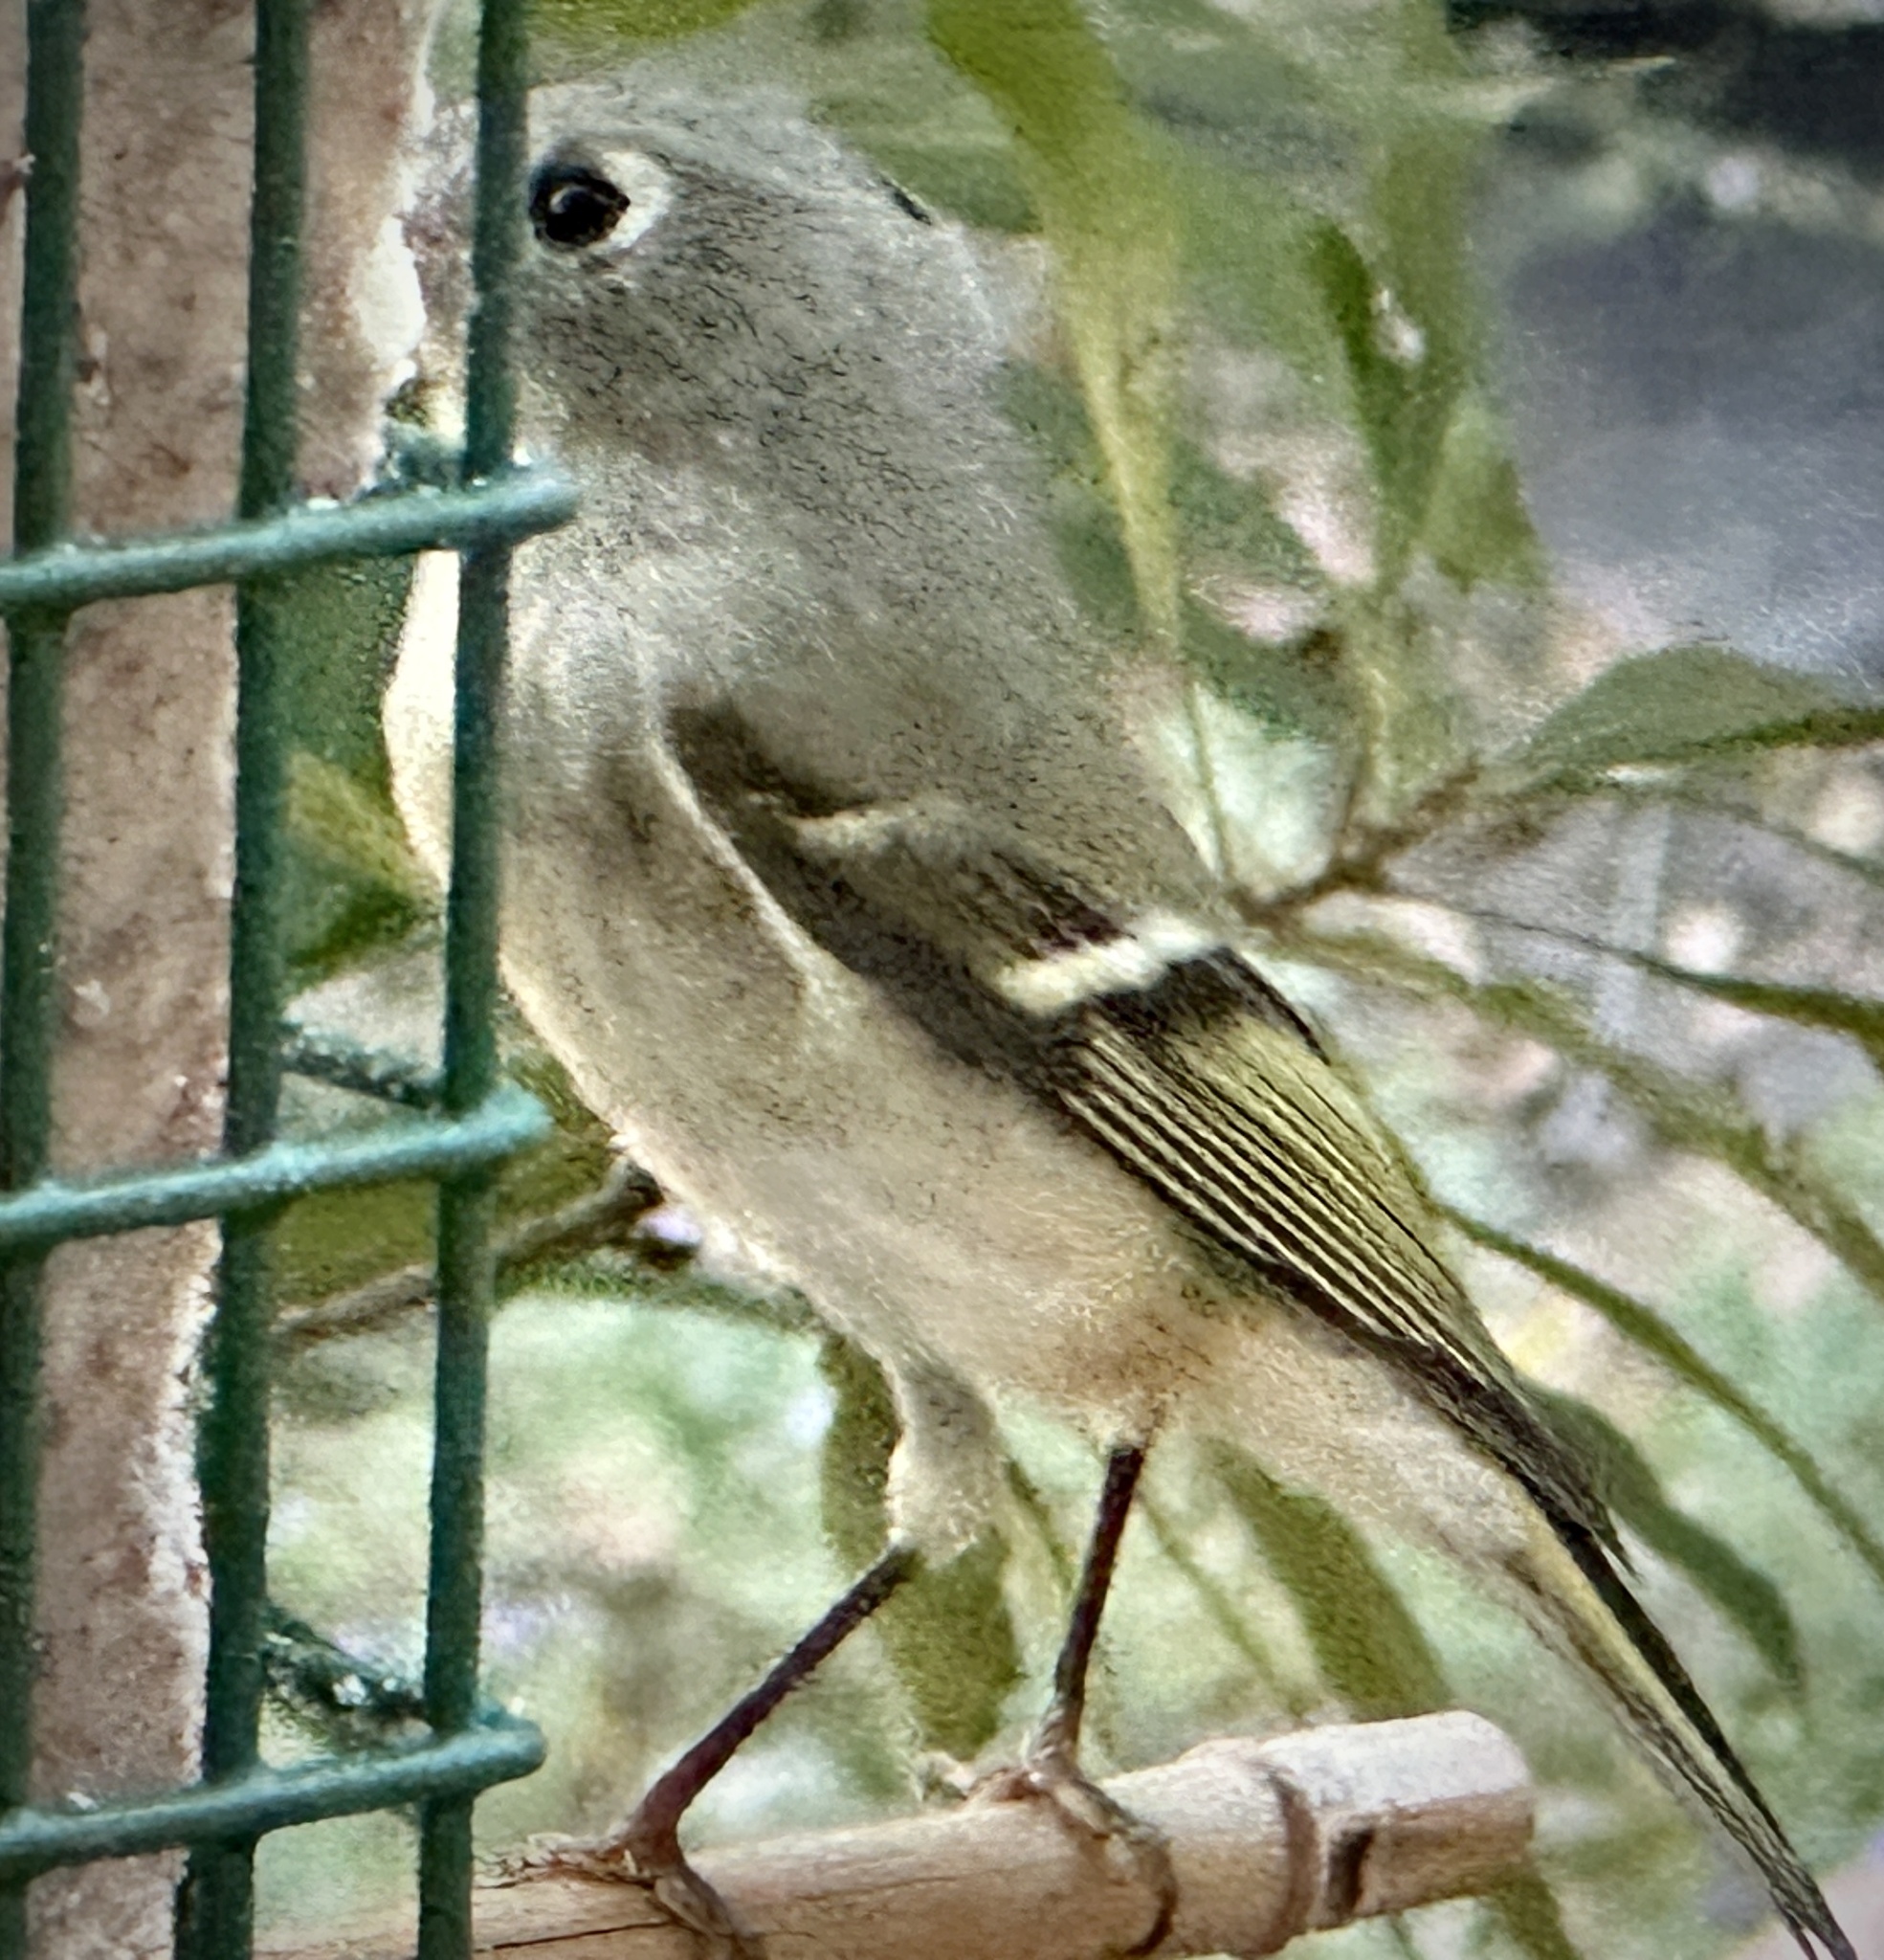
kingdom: Animalia
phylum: Chordata
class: Aves
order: Passeriformes
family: Regulidae
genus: Regulus
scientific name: Regulus calendula
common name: Ruby-crowned kinglet
